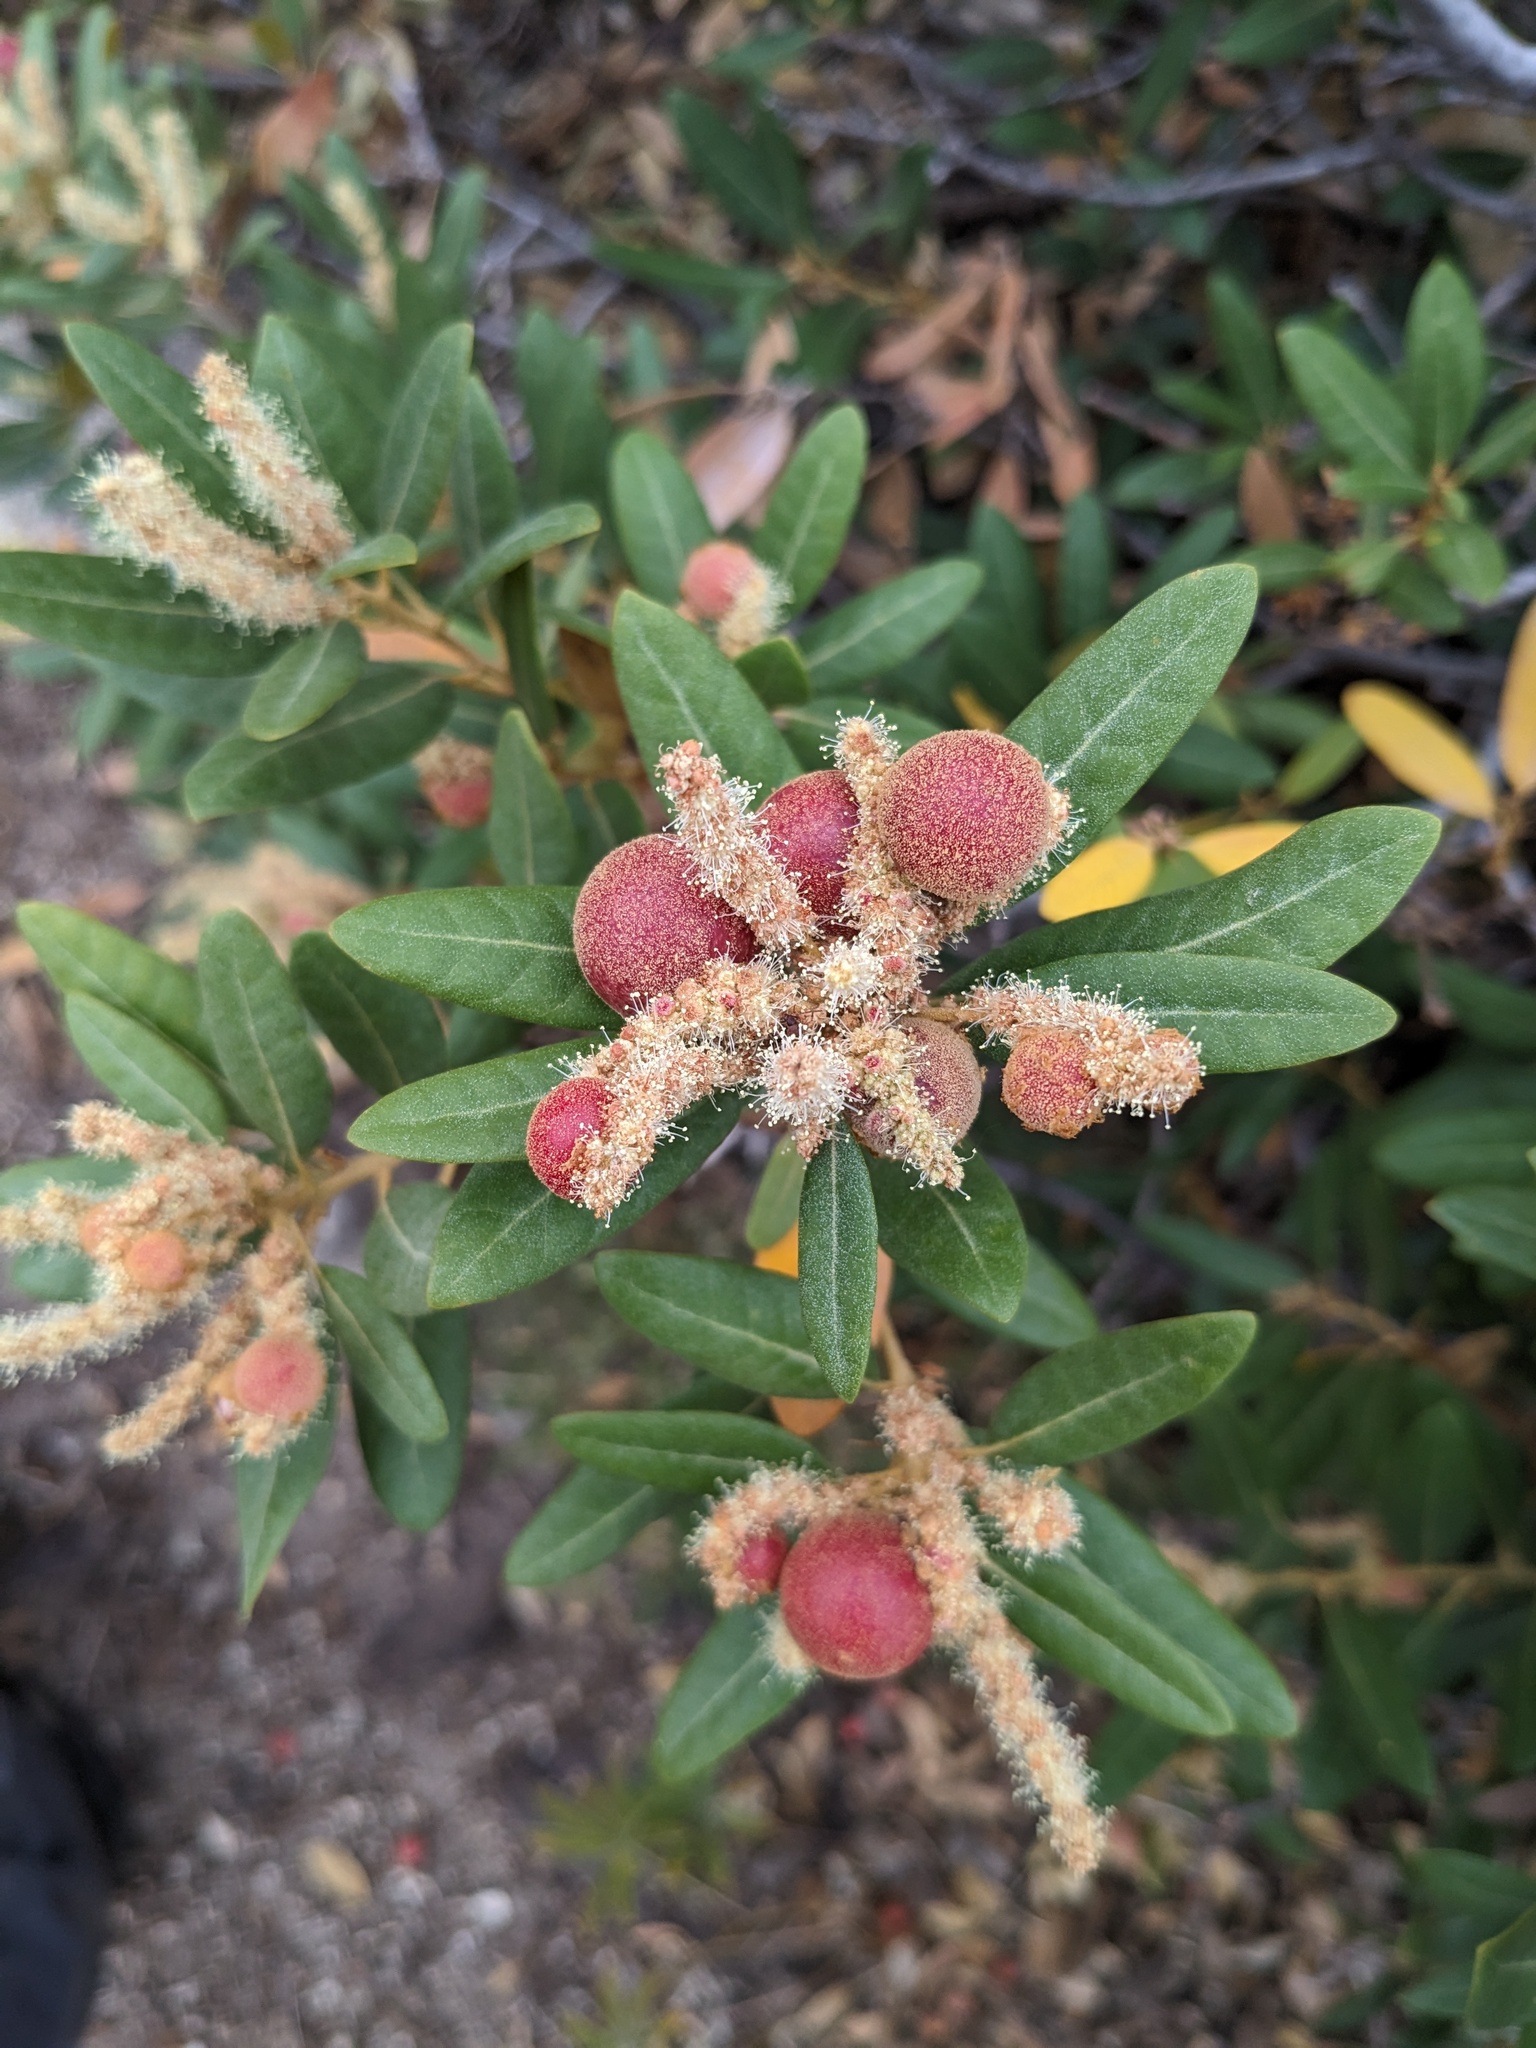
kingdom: Animalia
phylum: Arthropoda
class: Insecta
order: Hymenoptera
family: Cynipidae
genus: Synergus
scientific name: Synergus castanopsidis
